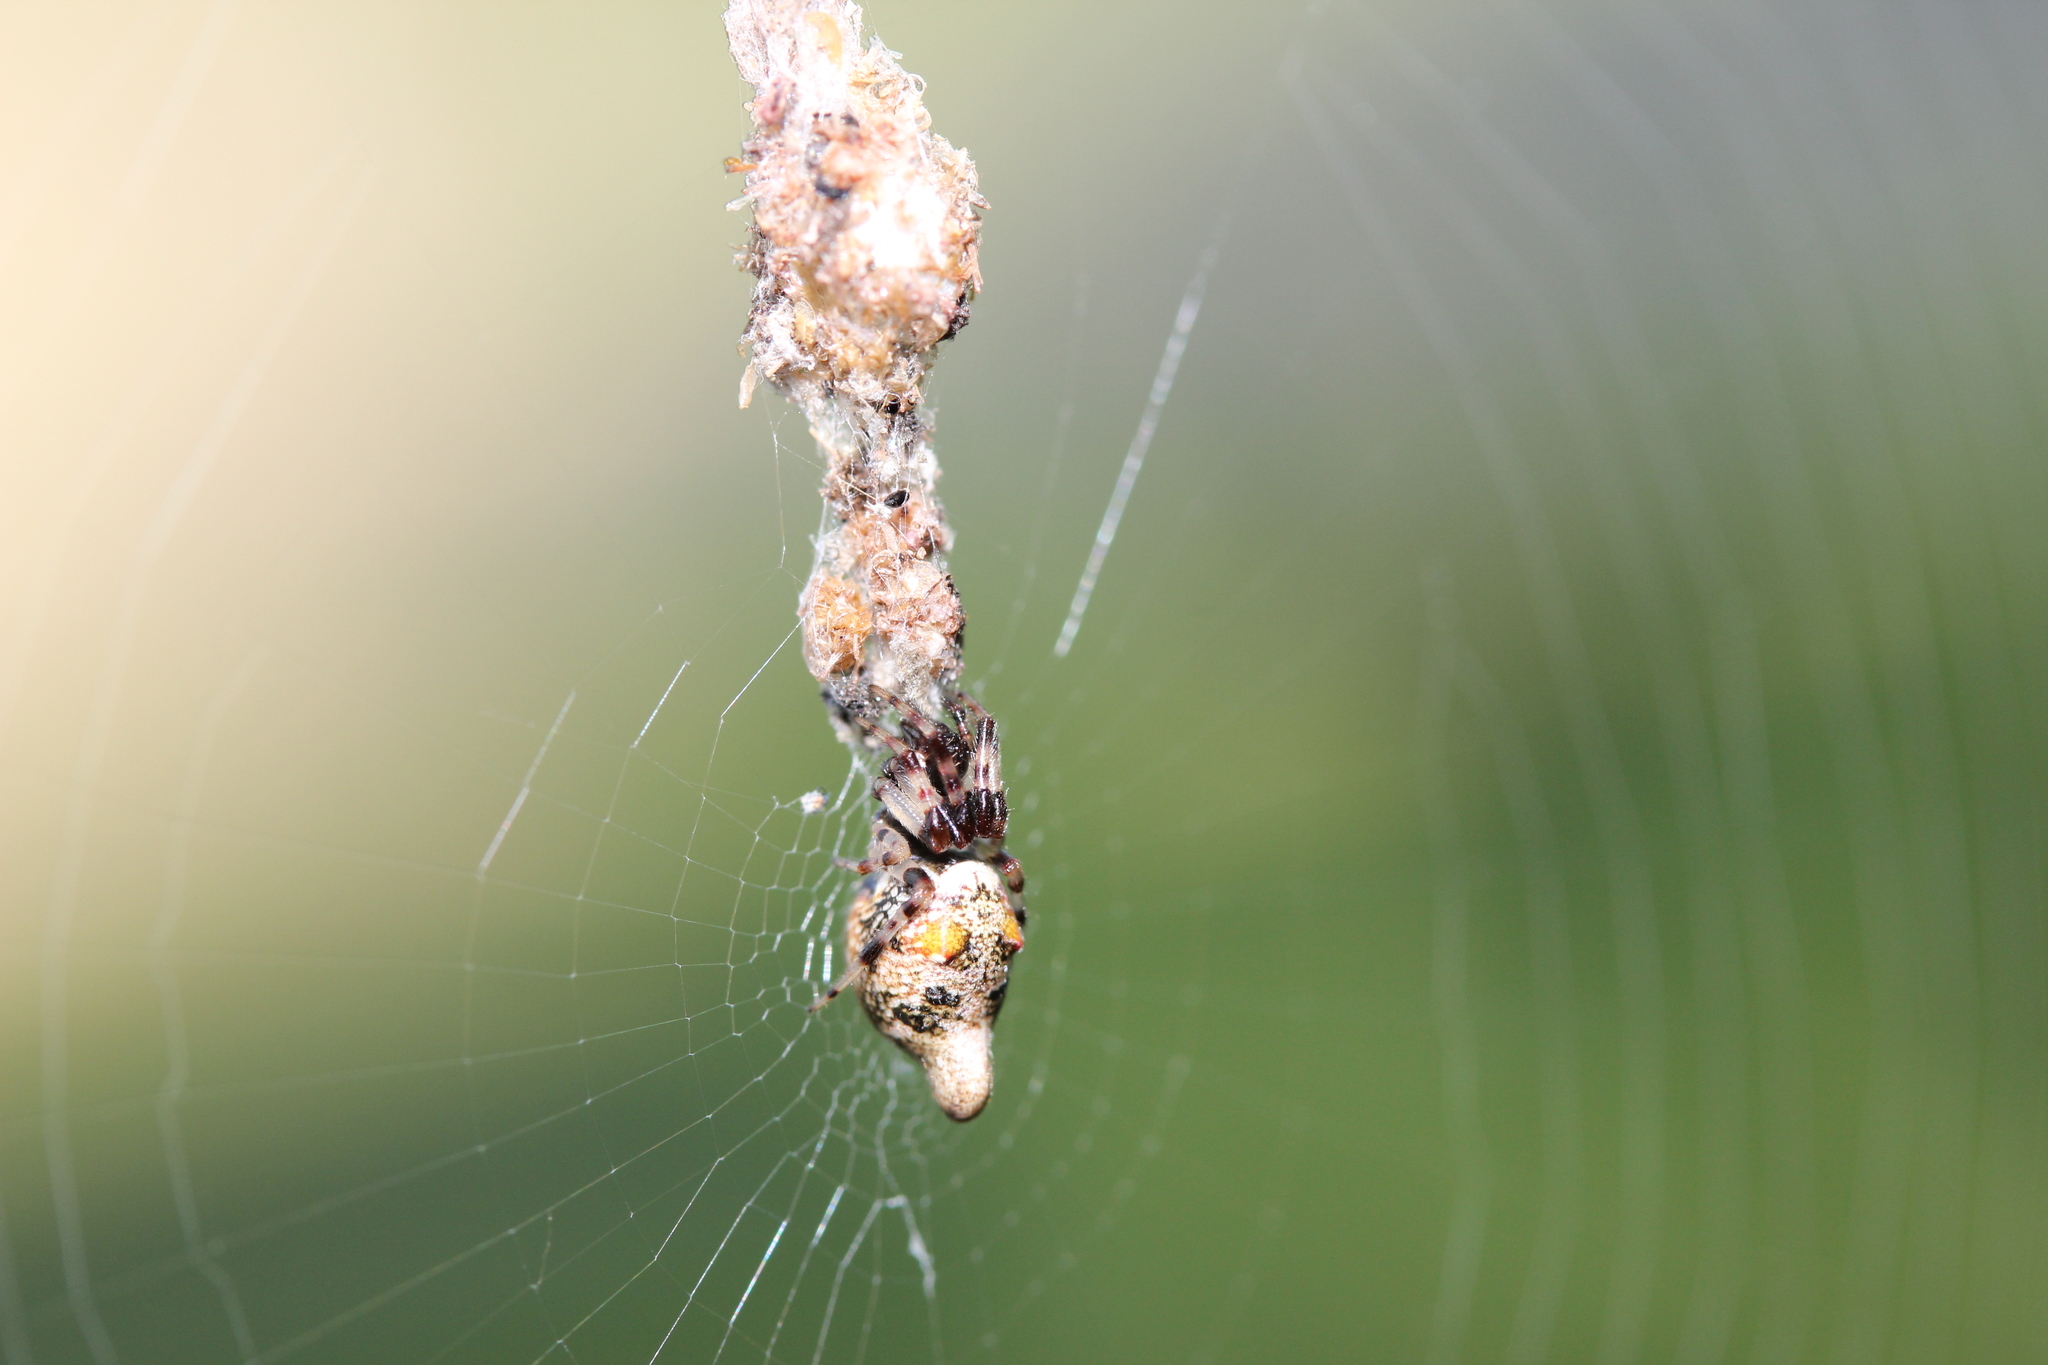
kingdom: Animalia
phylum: Arthropoda
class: Arachnida
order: Araneae
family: Araneidae
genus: Cyclosa
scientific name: Cyclosa turbinata
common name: Orb weavers
